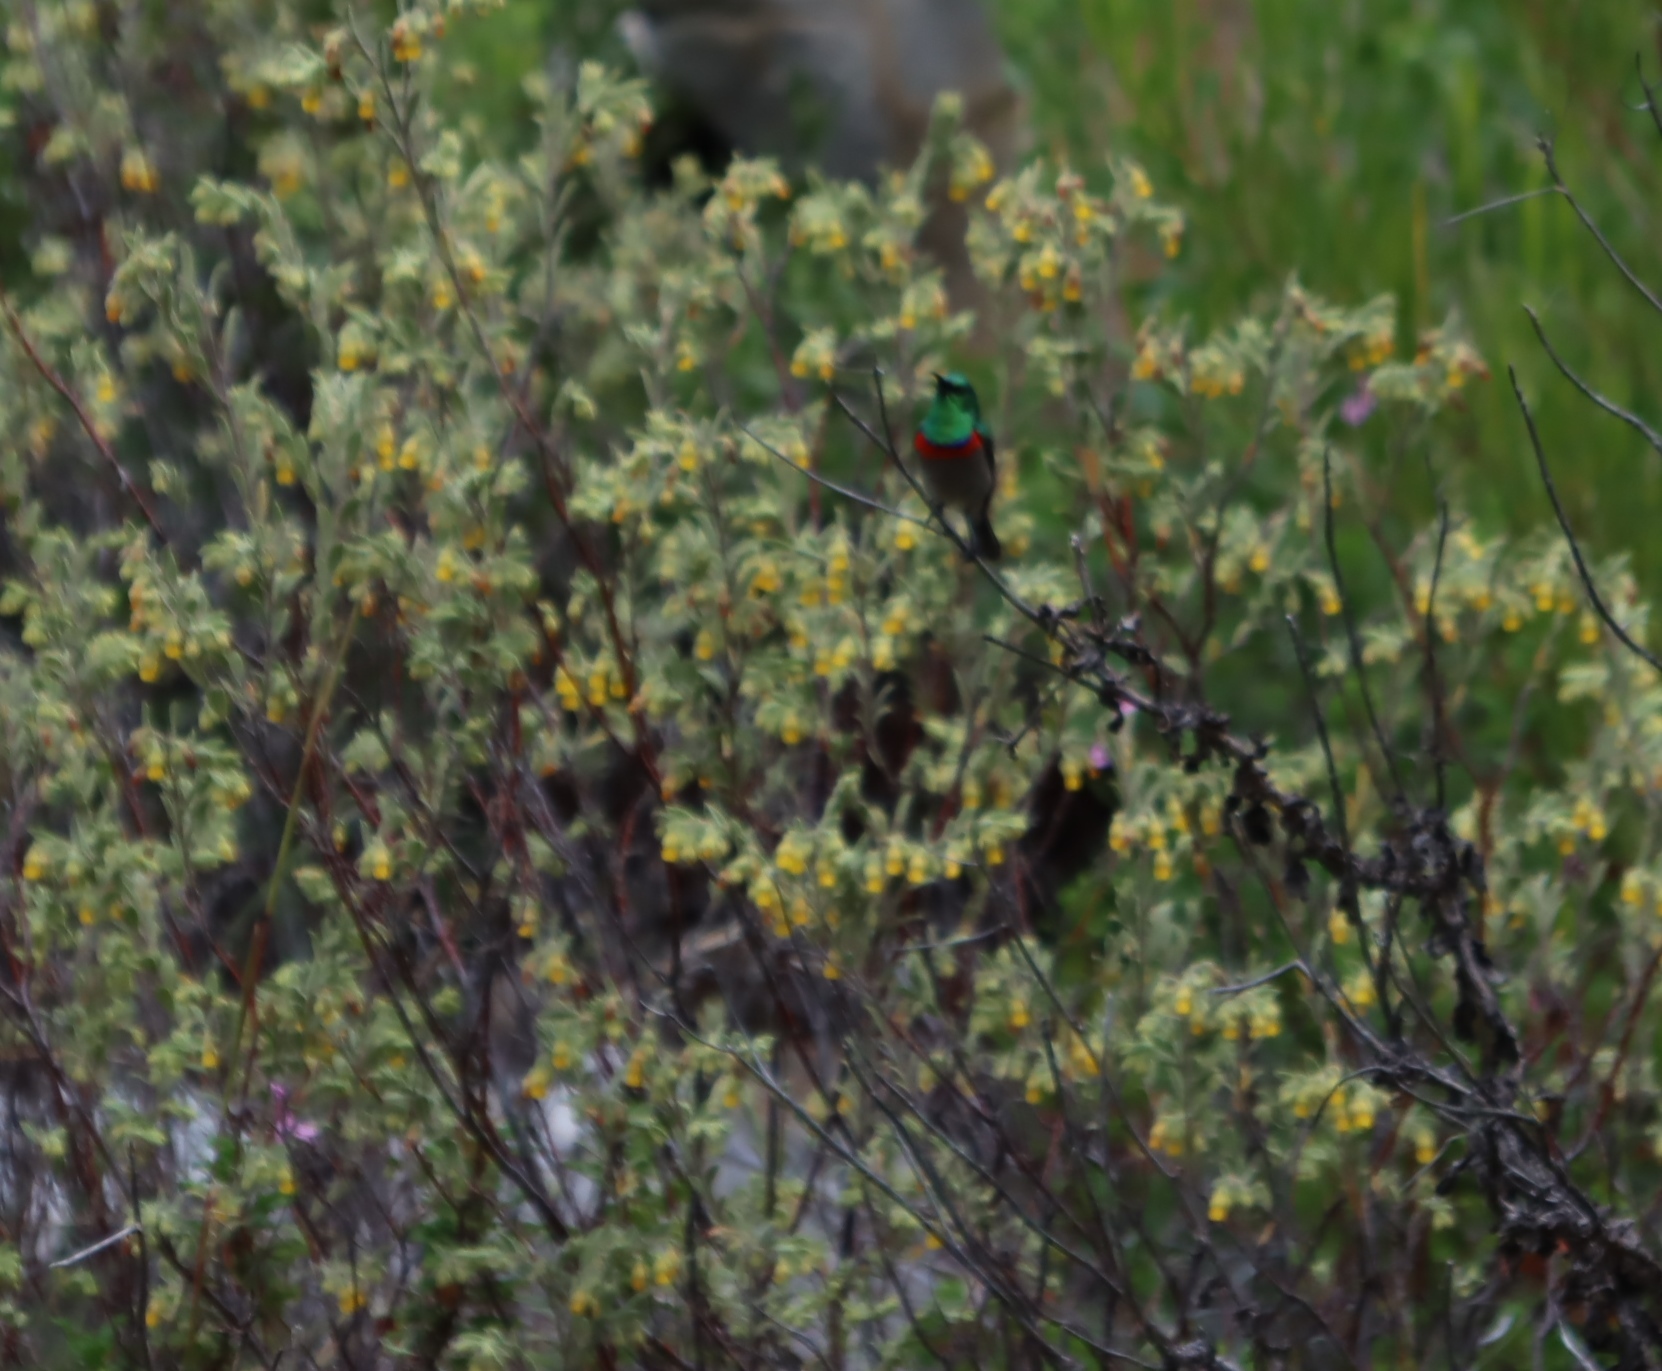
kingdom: Animalia
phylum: Chordata
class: Aves
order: Passeriformes
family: Nectariniidae
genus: Cinnyris
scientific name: Cinnyris chalybeus
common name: Southern double-collared sunbird
